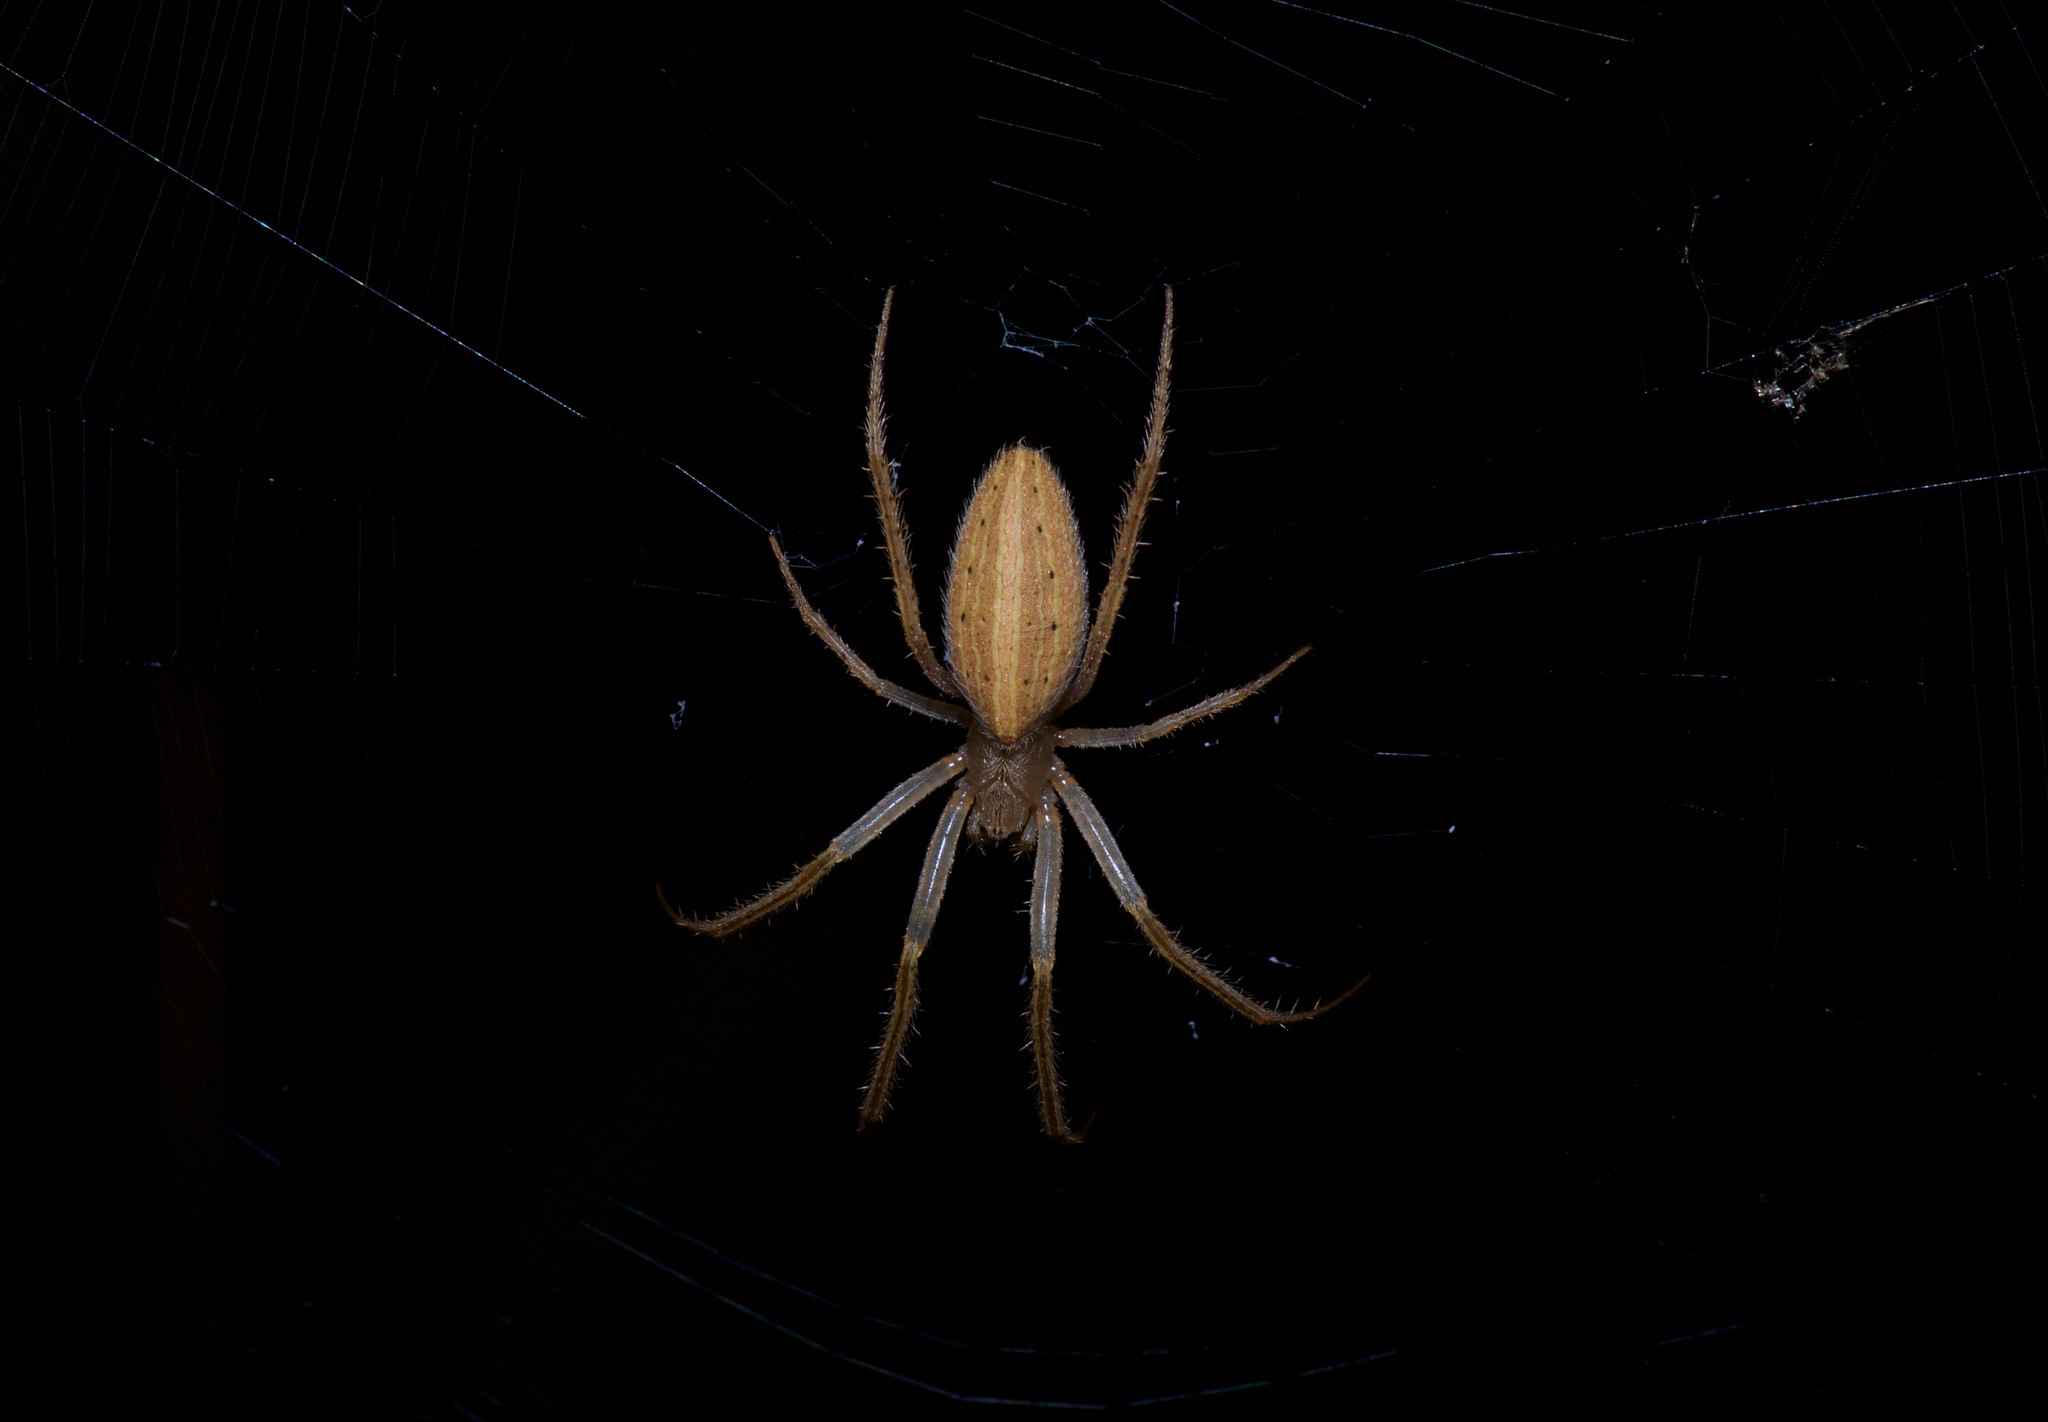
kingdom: Animalia
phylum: Arthropoda
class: Arachnida
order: Araneae
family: Araneidae
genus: Larinia
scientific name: Larinia directa
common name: Orb weavers
